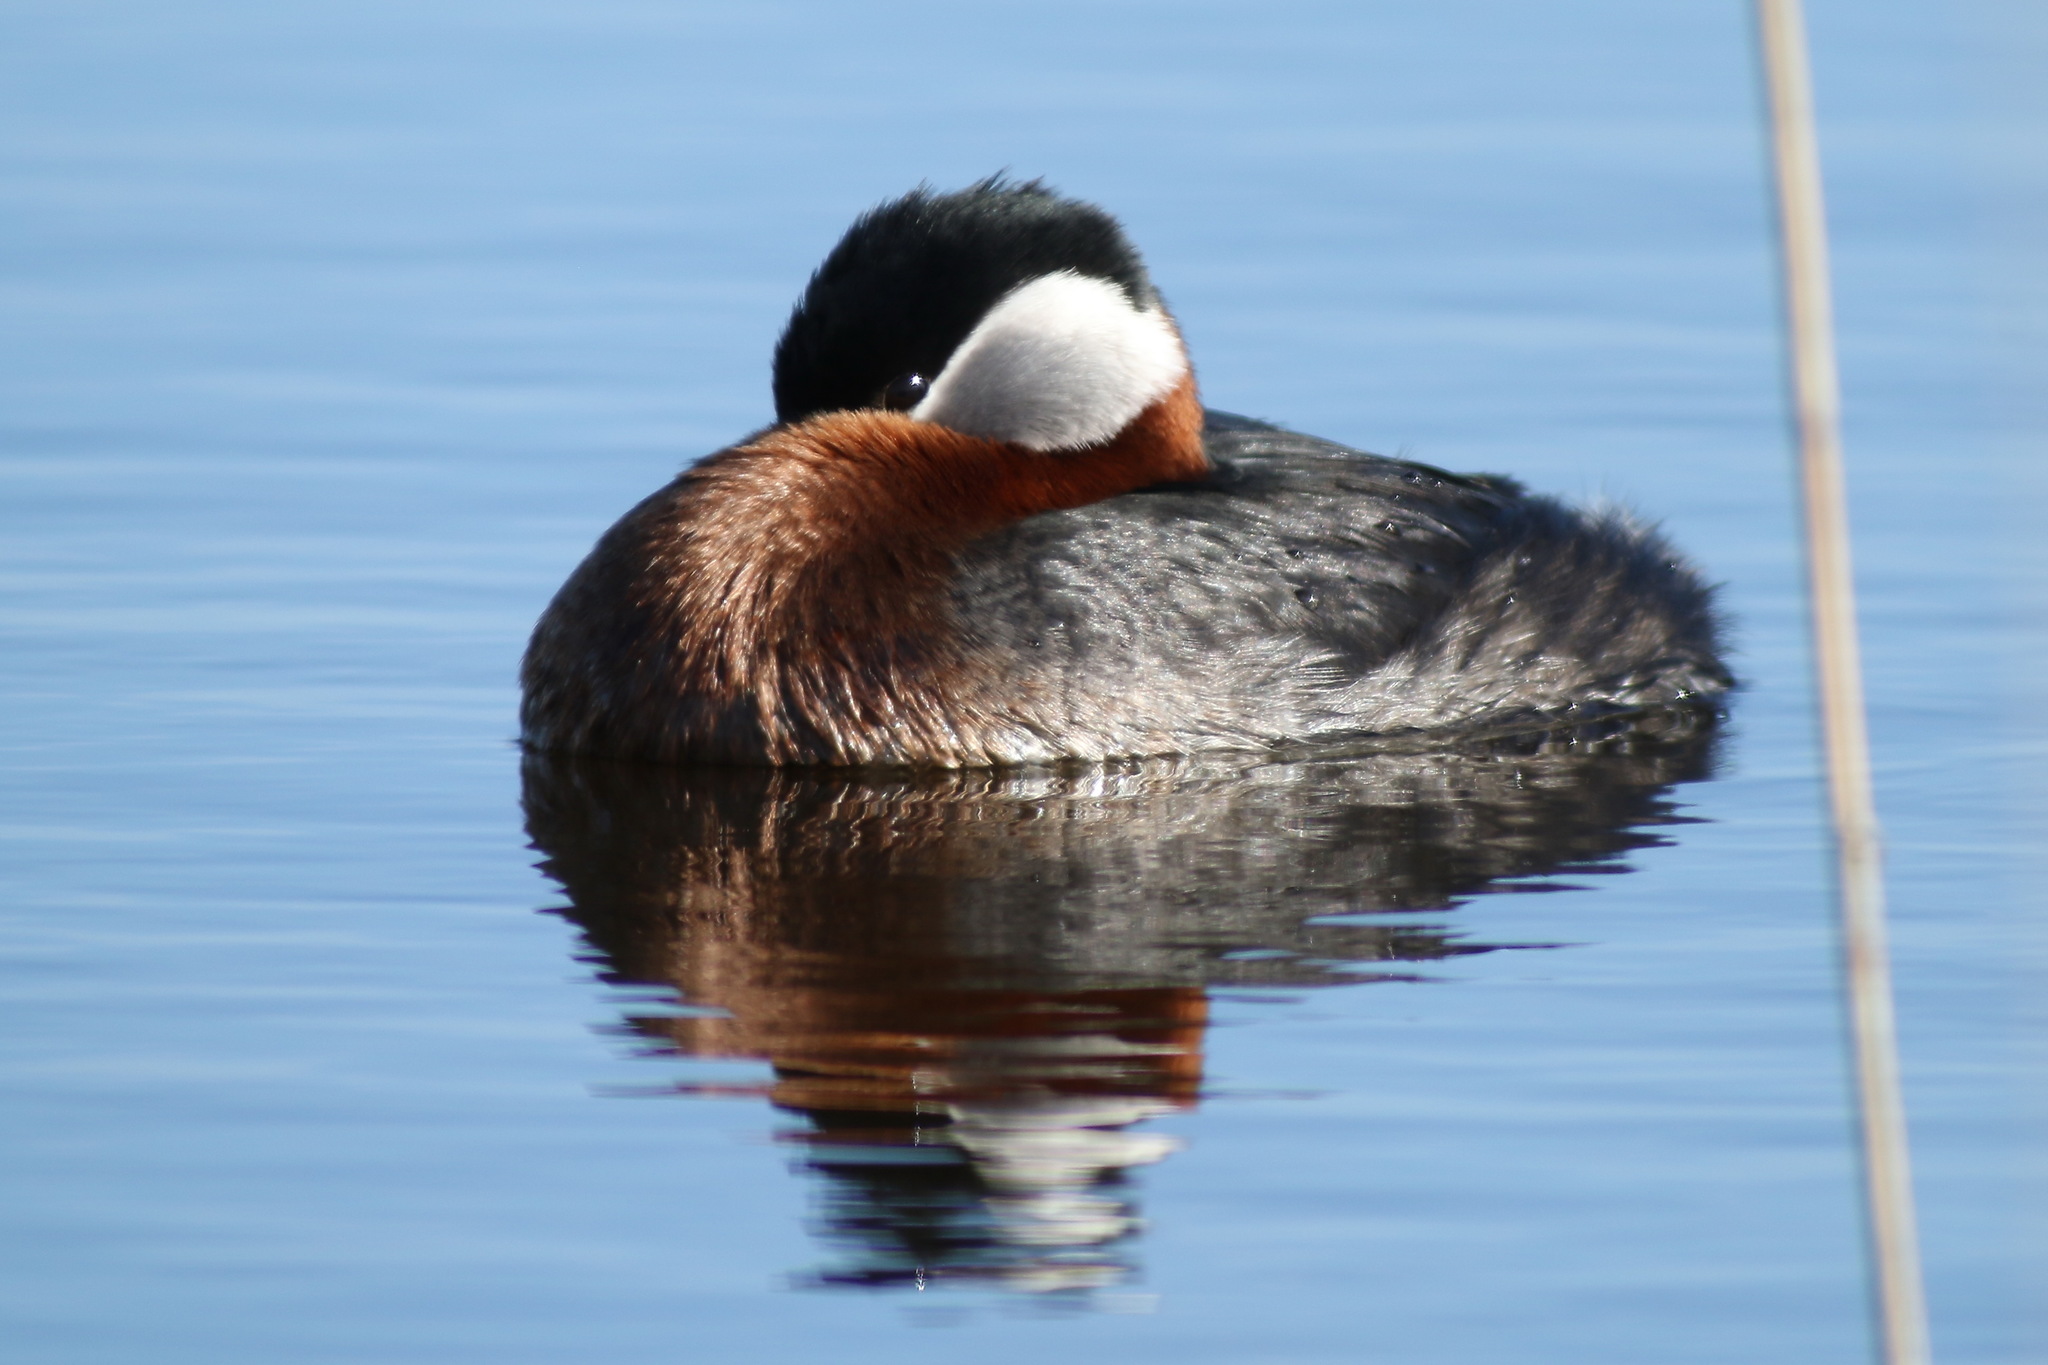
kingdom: Animalia
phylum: Chordata
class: Aves
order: Podicipediformes
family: Podicipedidae
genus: Podiceps
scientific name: Podiceps grisegena
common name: Red-necked grebe
